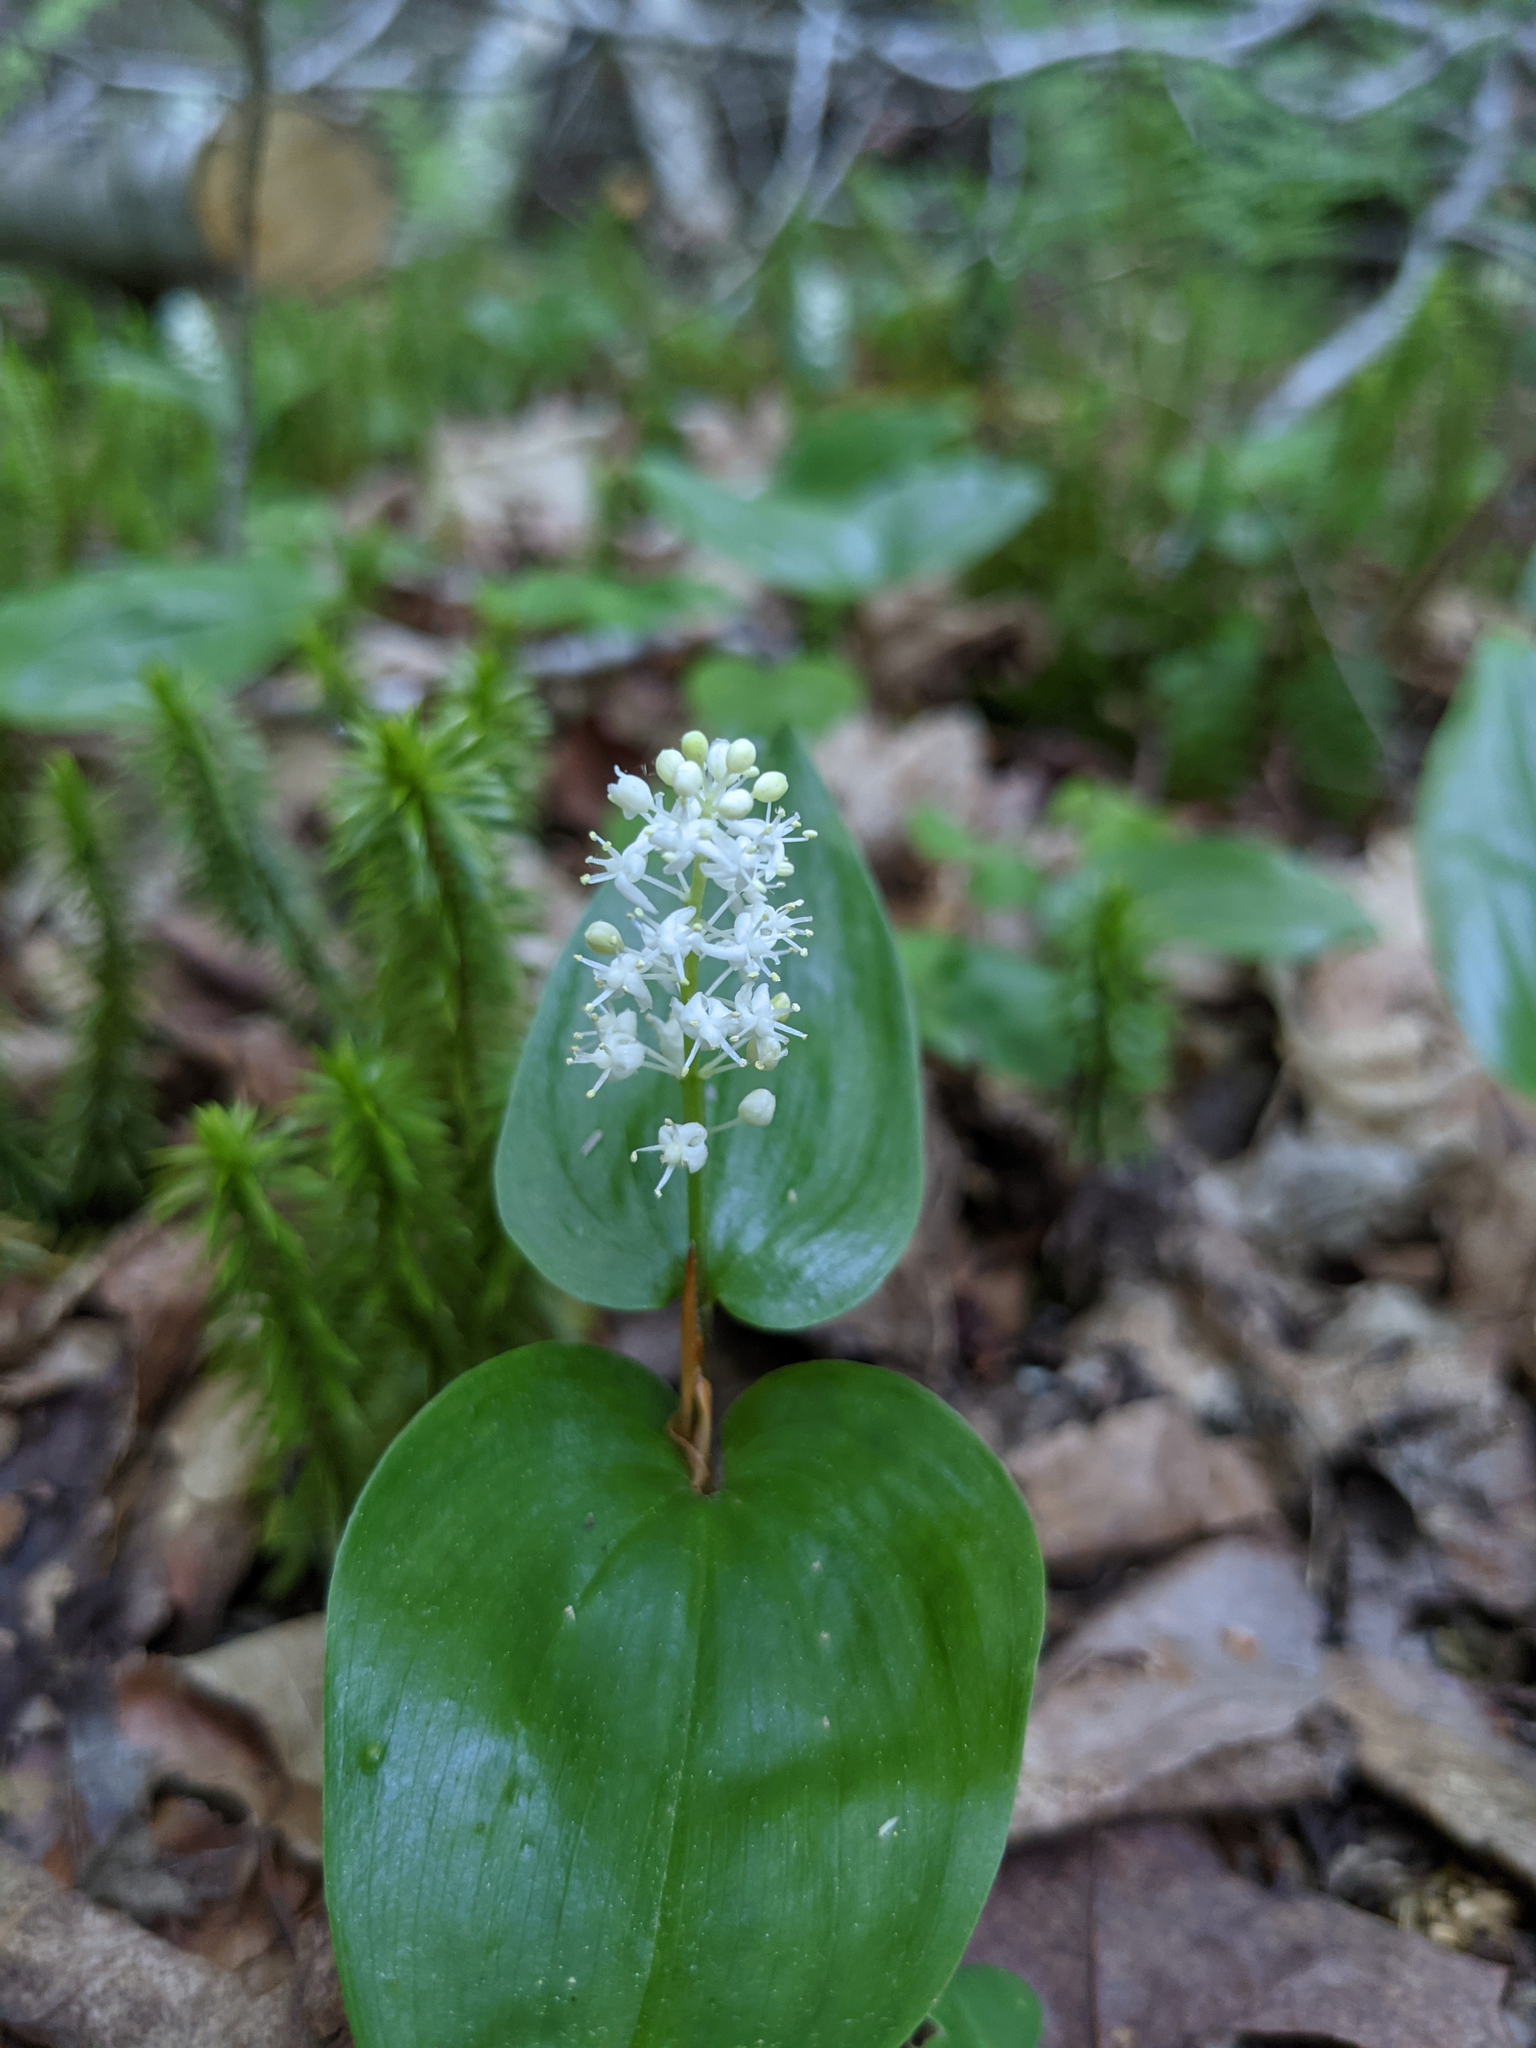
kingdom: Plantae
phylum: Tracheophyta
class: Liliopsida
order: Asparagales
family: Asparagaceae
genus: Maianthemum
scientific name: Maianthemum canadense
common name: False lily-of-the-valley
